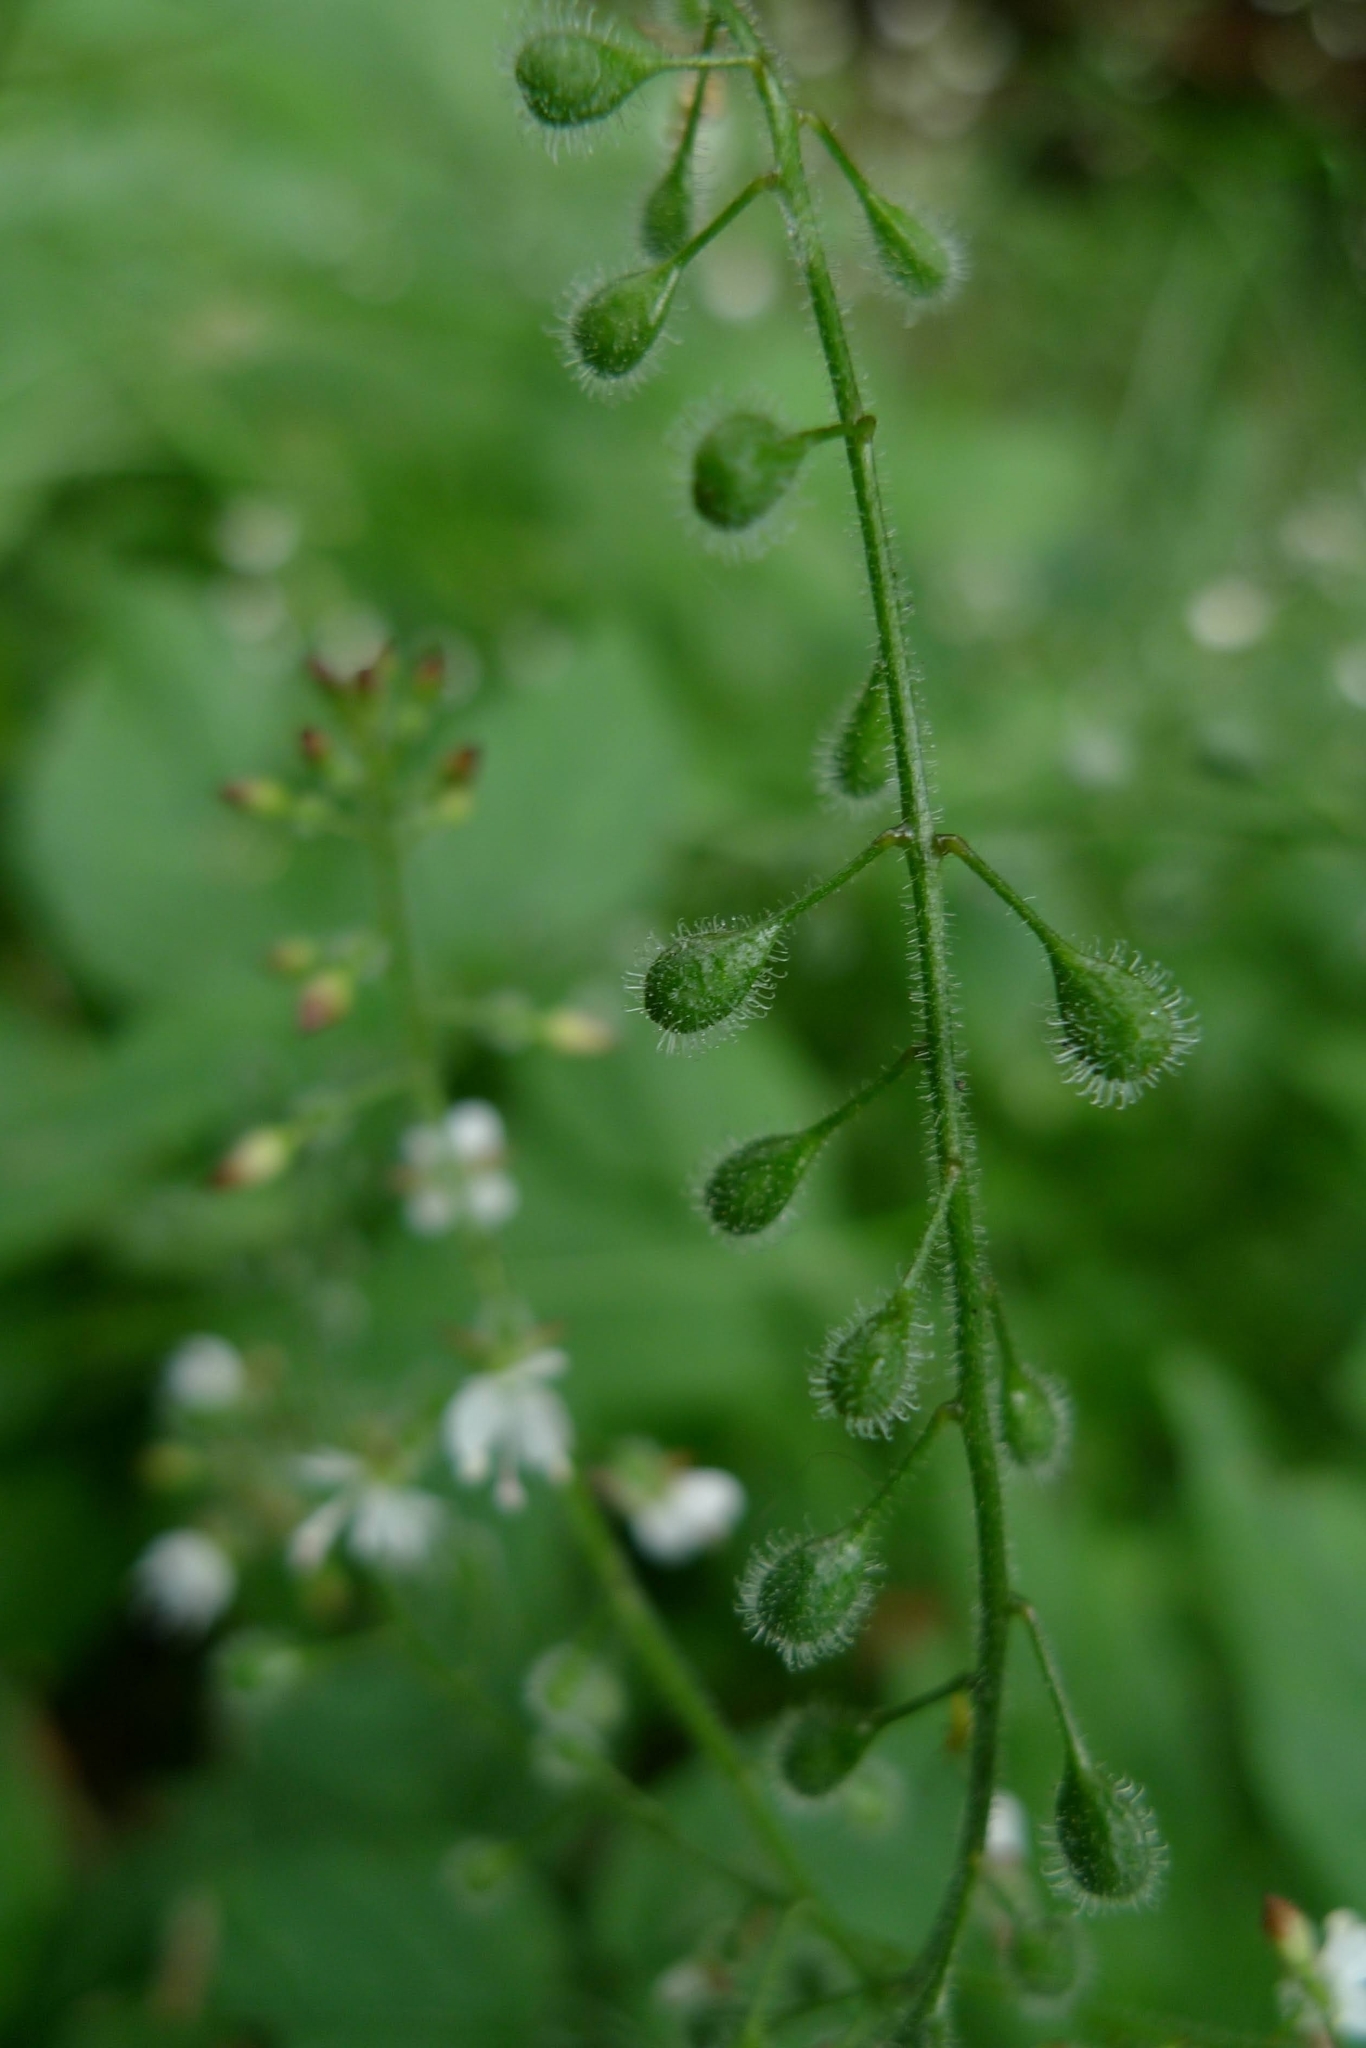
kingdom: Plantae
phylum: Tracheophyta
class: Magnoliopsida
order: Myrtales
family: Onagraceae
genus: Circaea
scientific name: Circaea lutetiana
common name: Enchanter's-nightshade
